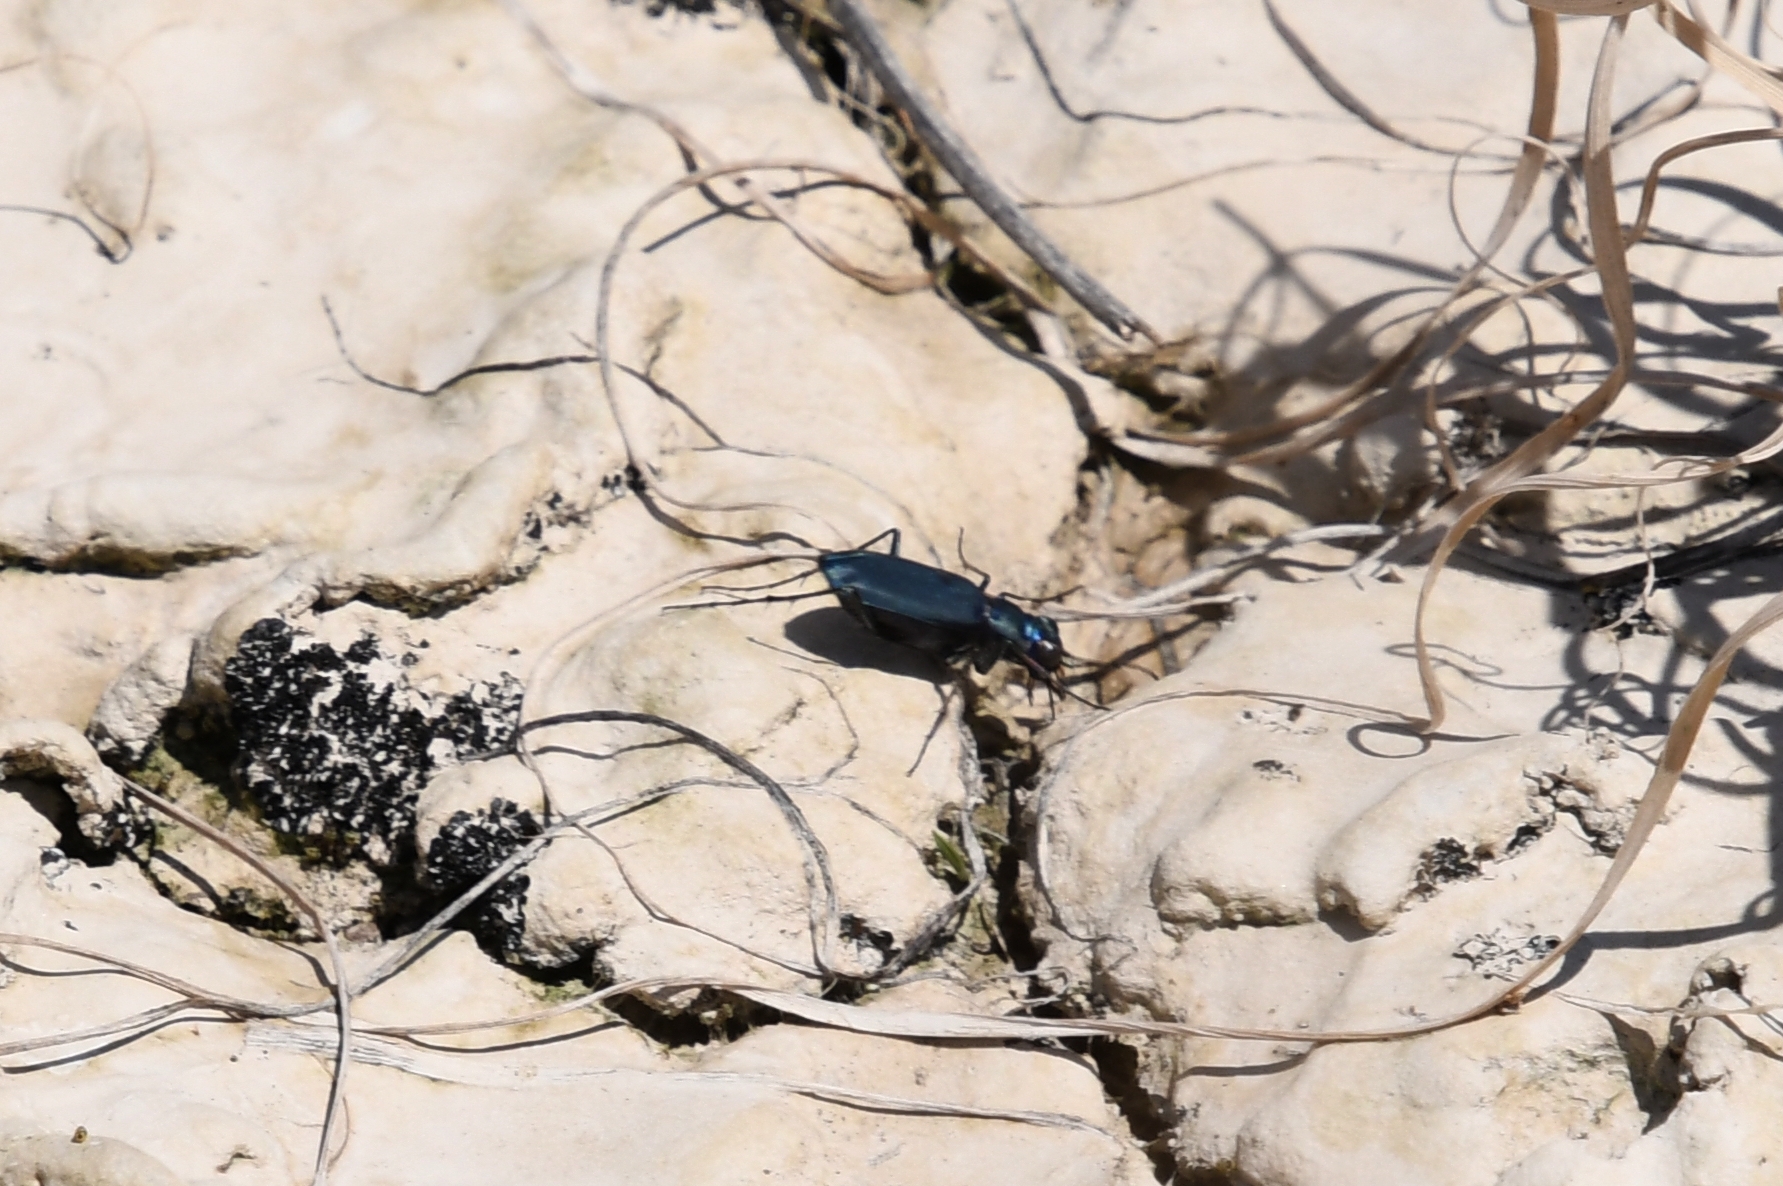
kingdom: Animalia
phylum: Arthropoda
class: Insecta
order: Coleoptera
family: Carabidae
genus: Cicindela
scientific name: Cicindela nigrocoerulea
